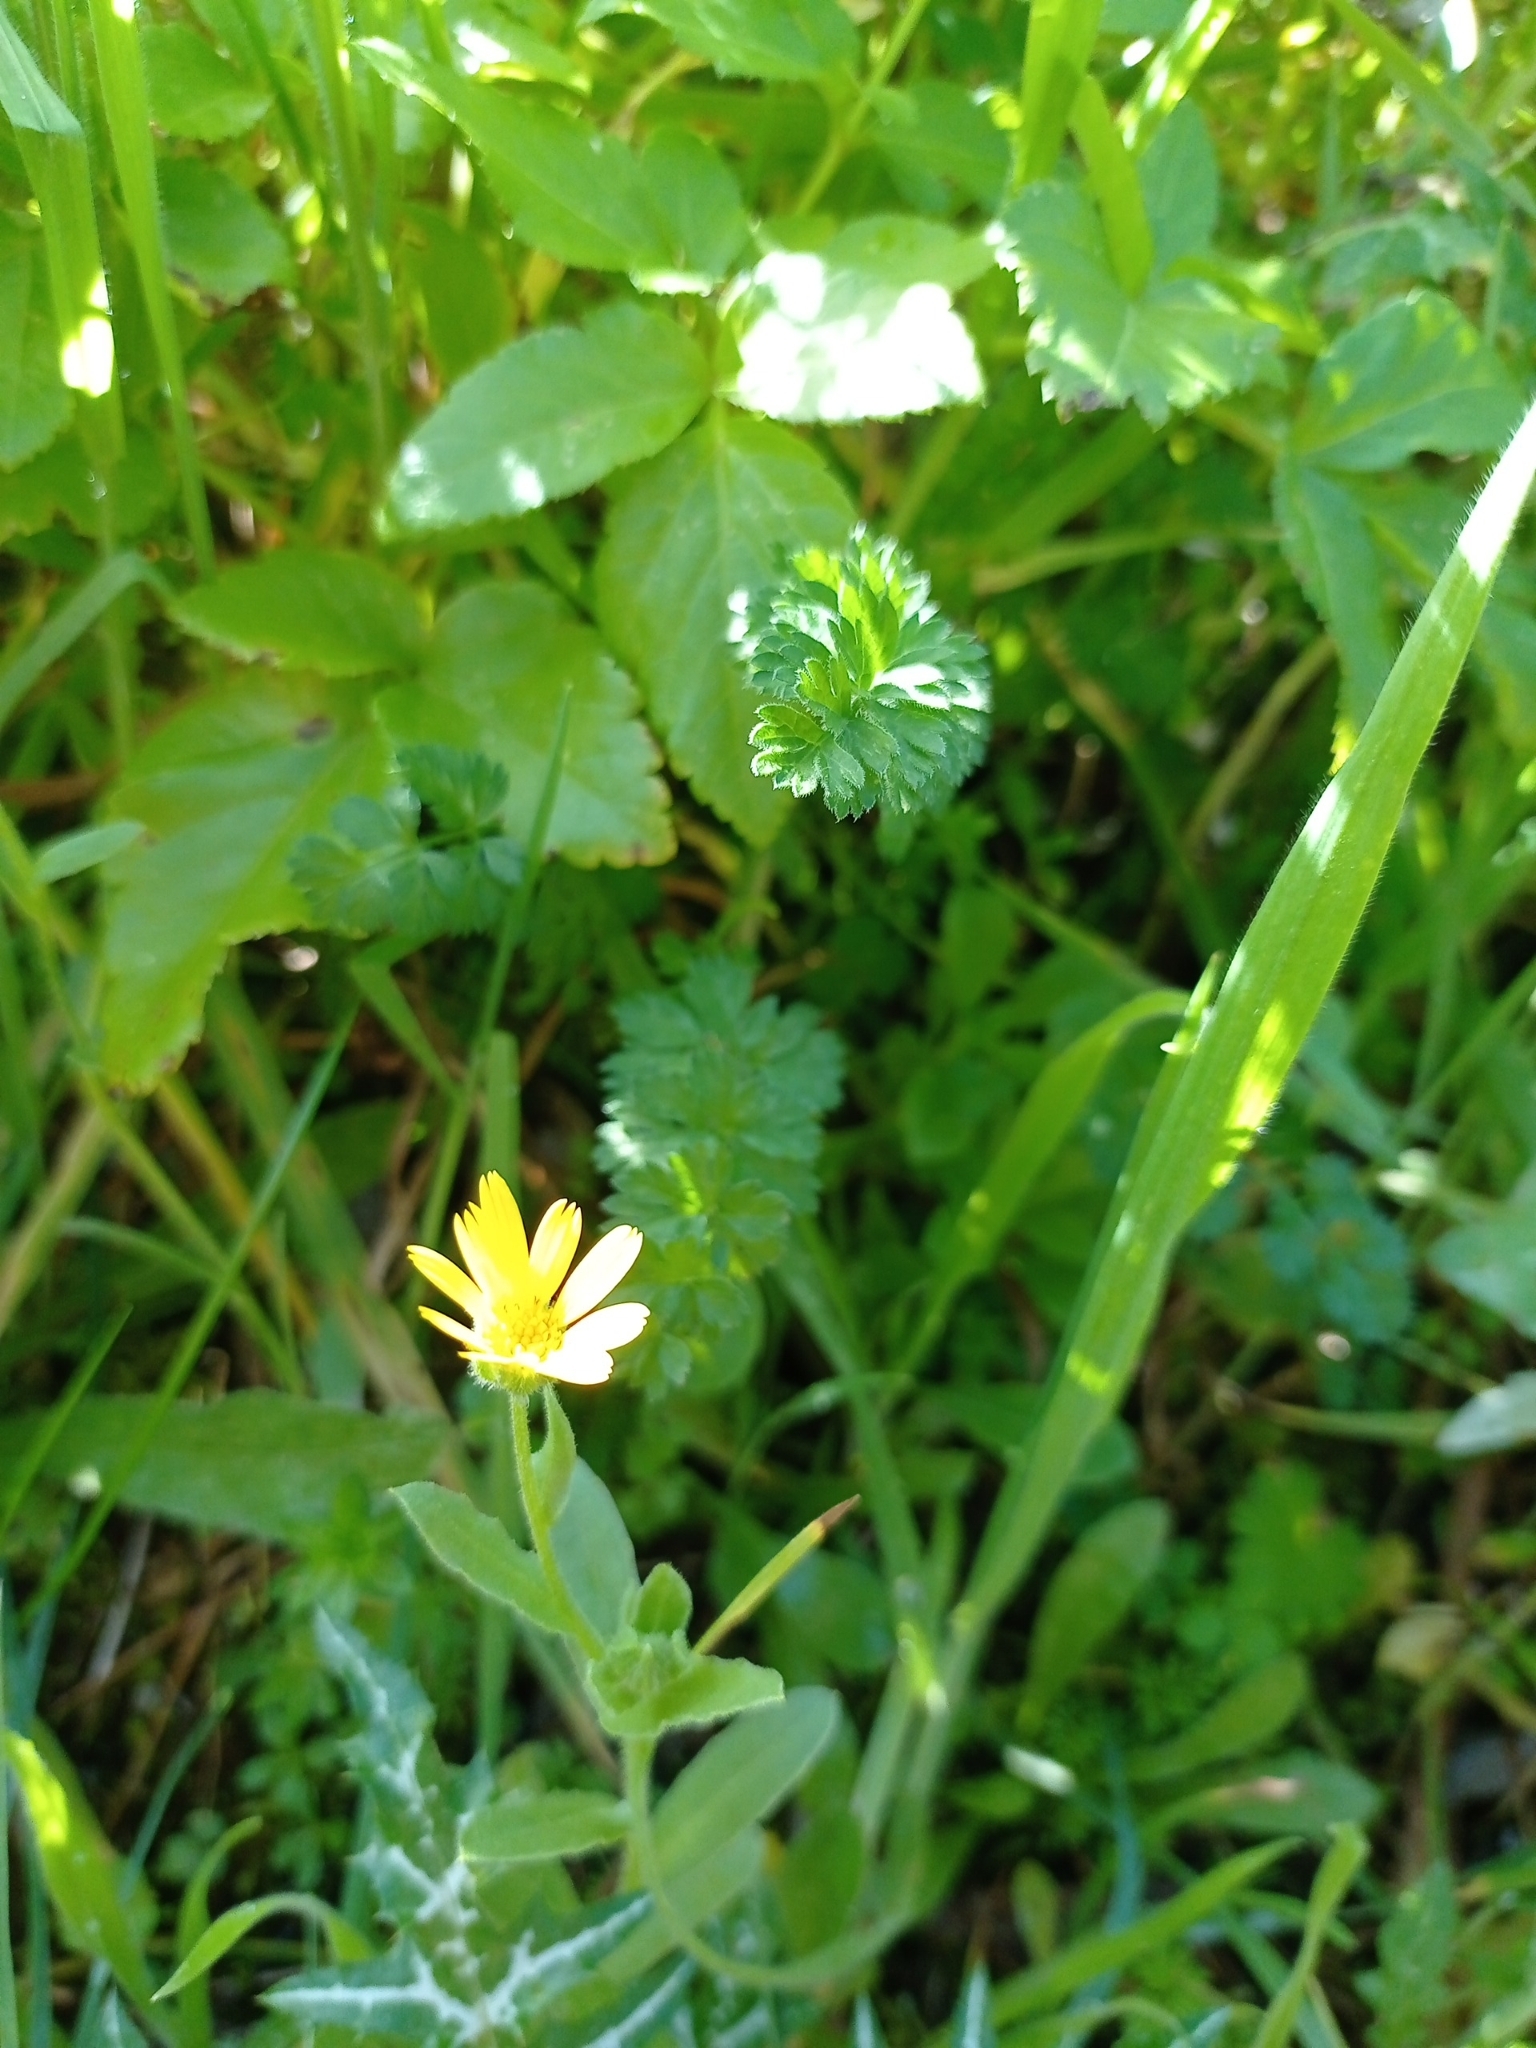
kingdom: Plantae
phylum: Tracheophyta
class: Magnoliopsida
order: Asterales
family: Asteraceae
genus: Calendula
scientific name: Calendula arvensis
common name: Field marigold
